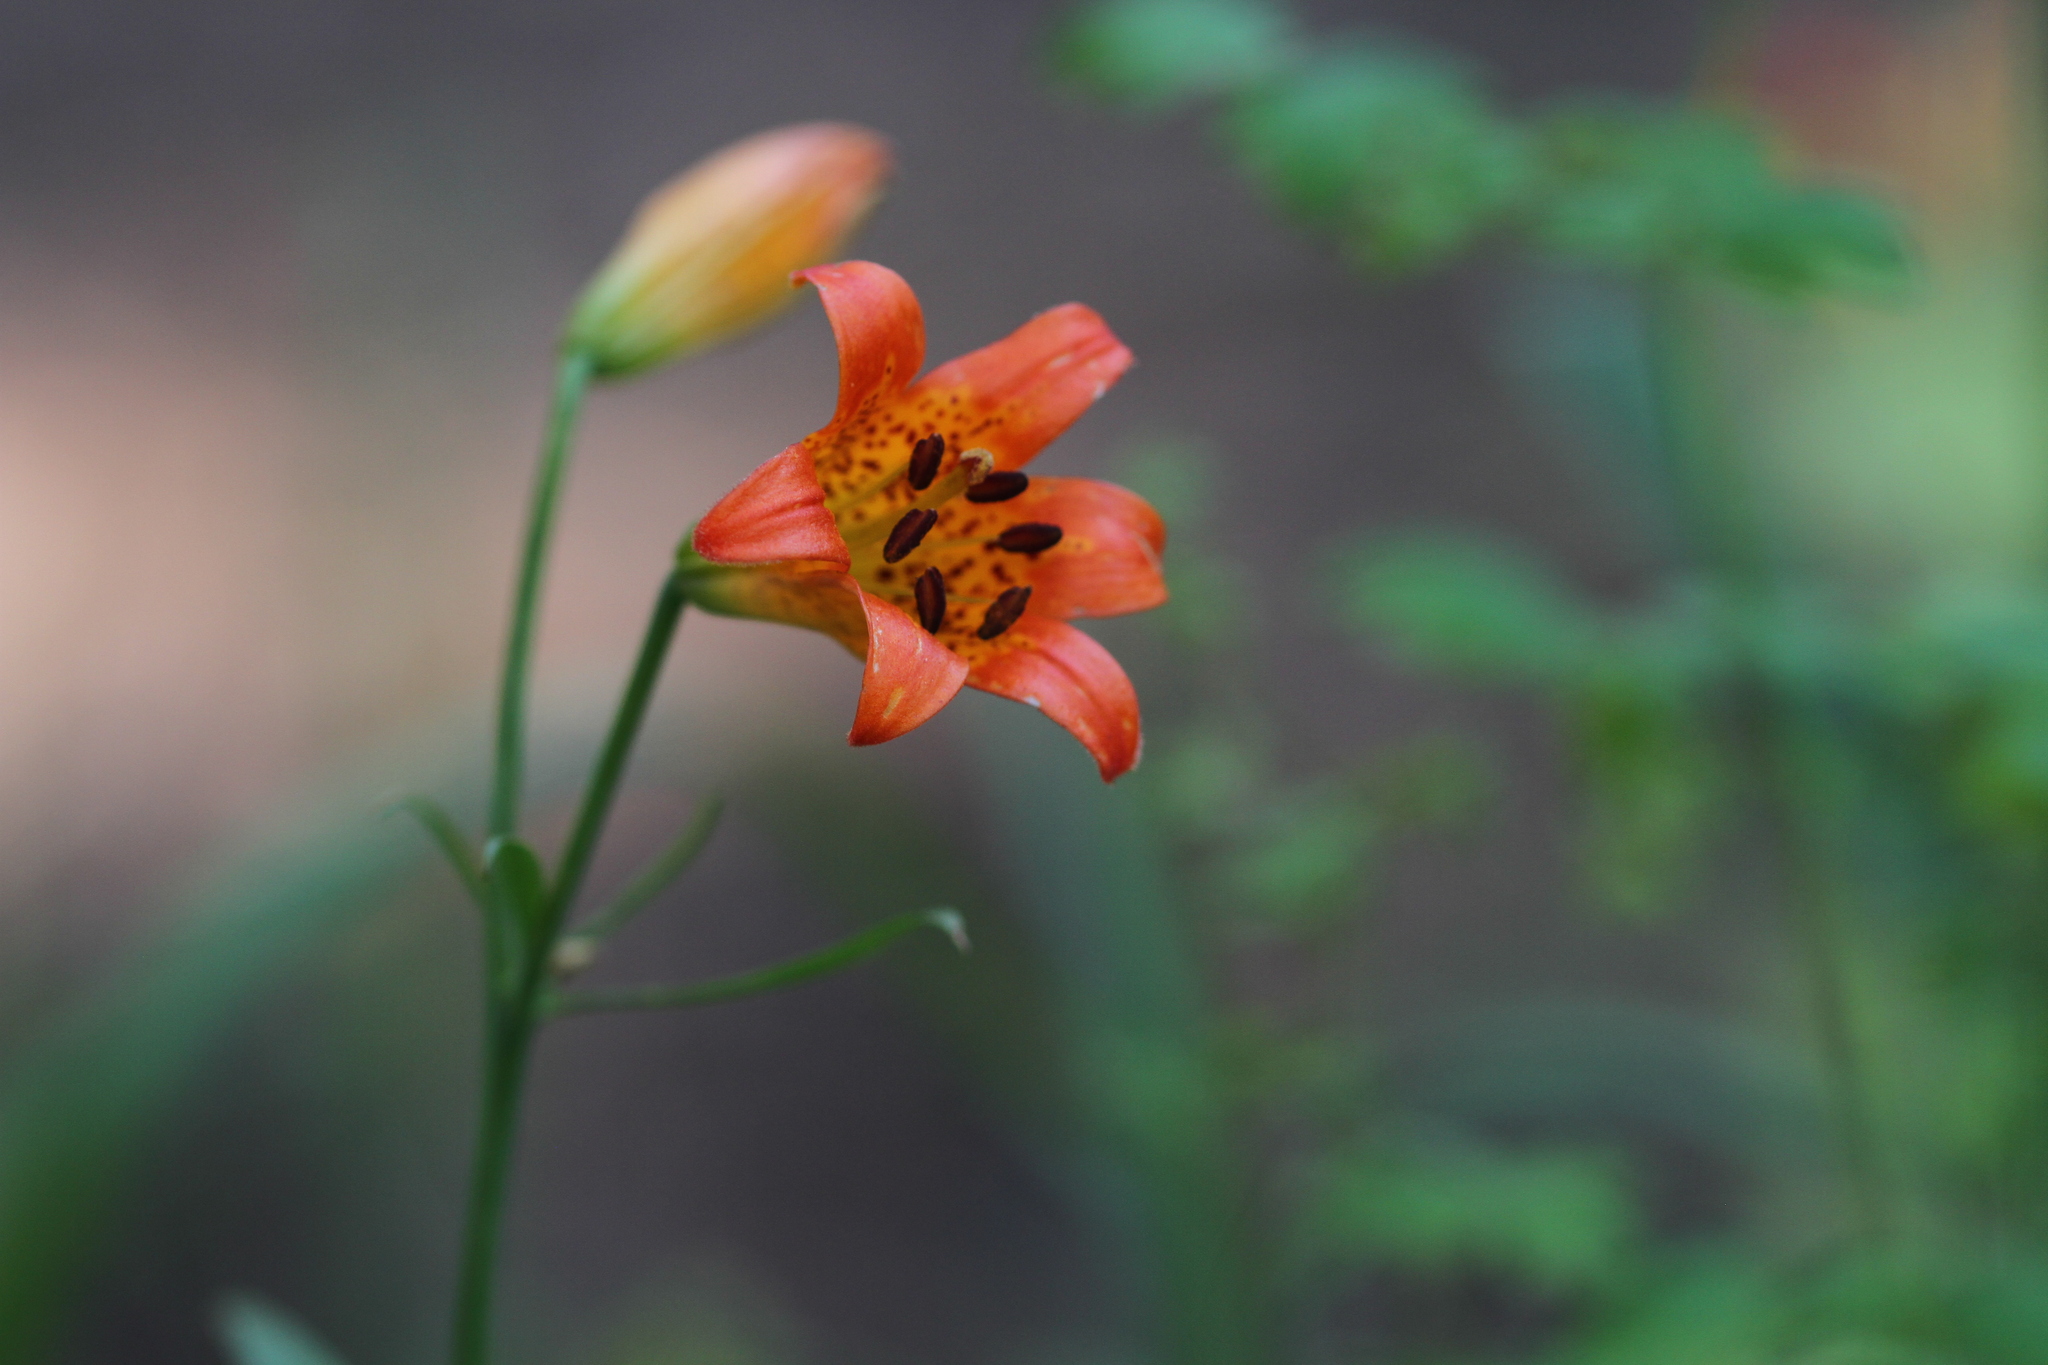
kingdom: Plantae
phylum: Tracheophyta
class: Liliopsida
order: Liliales
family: Liliaceae
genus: Lilium
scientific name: Lilium parvum
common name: Alpine lily
